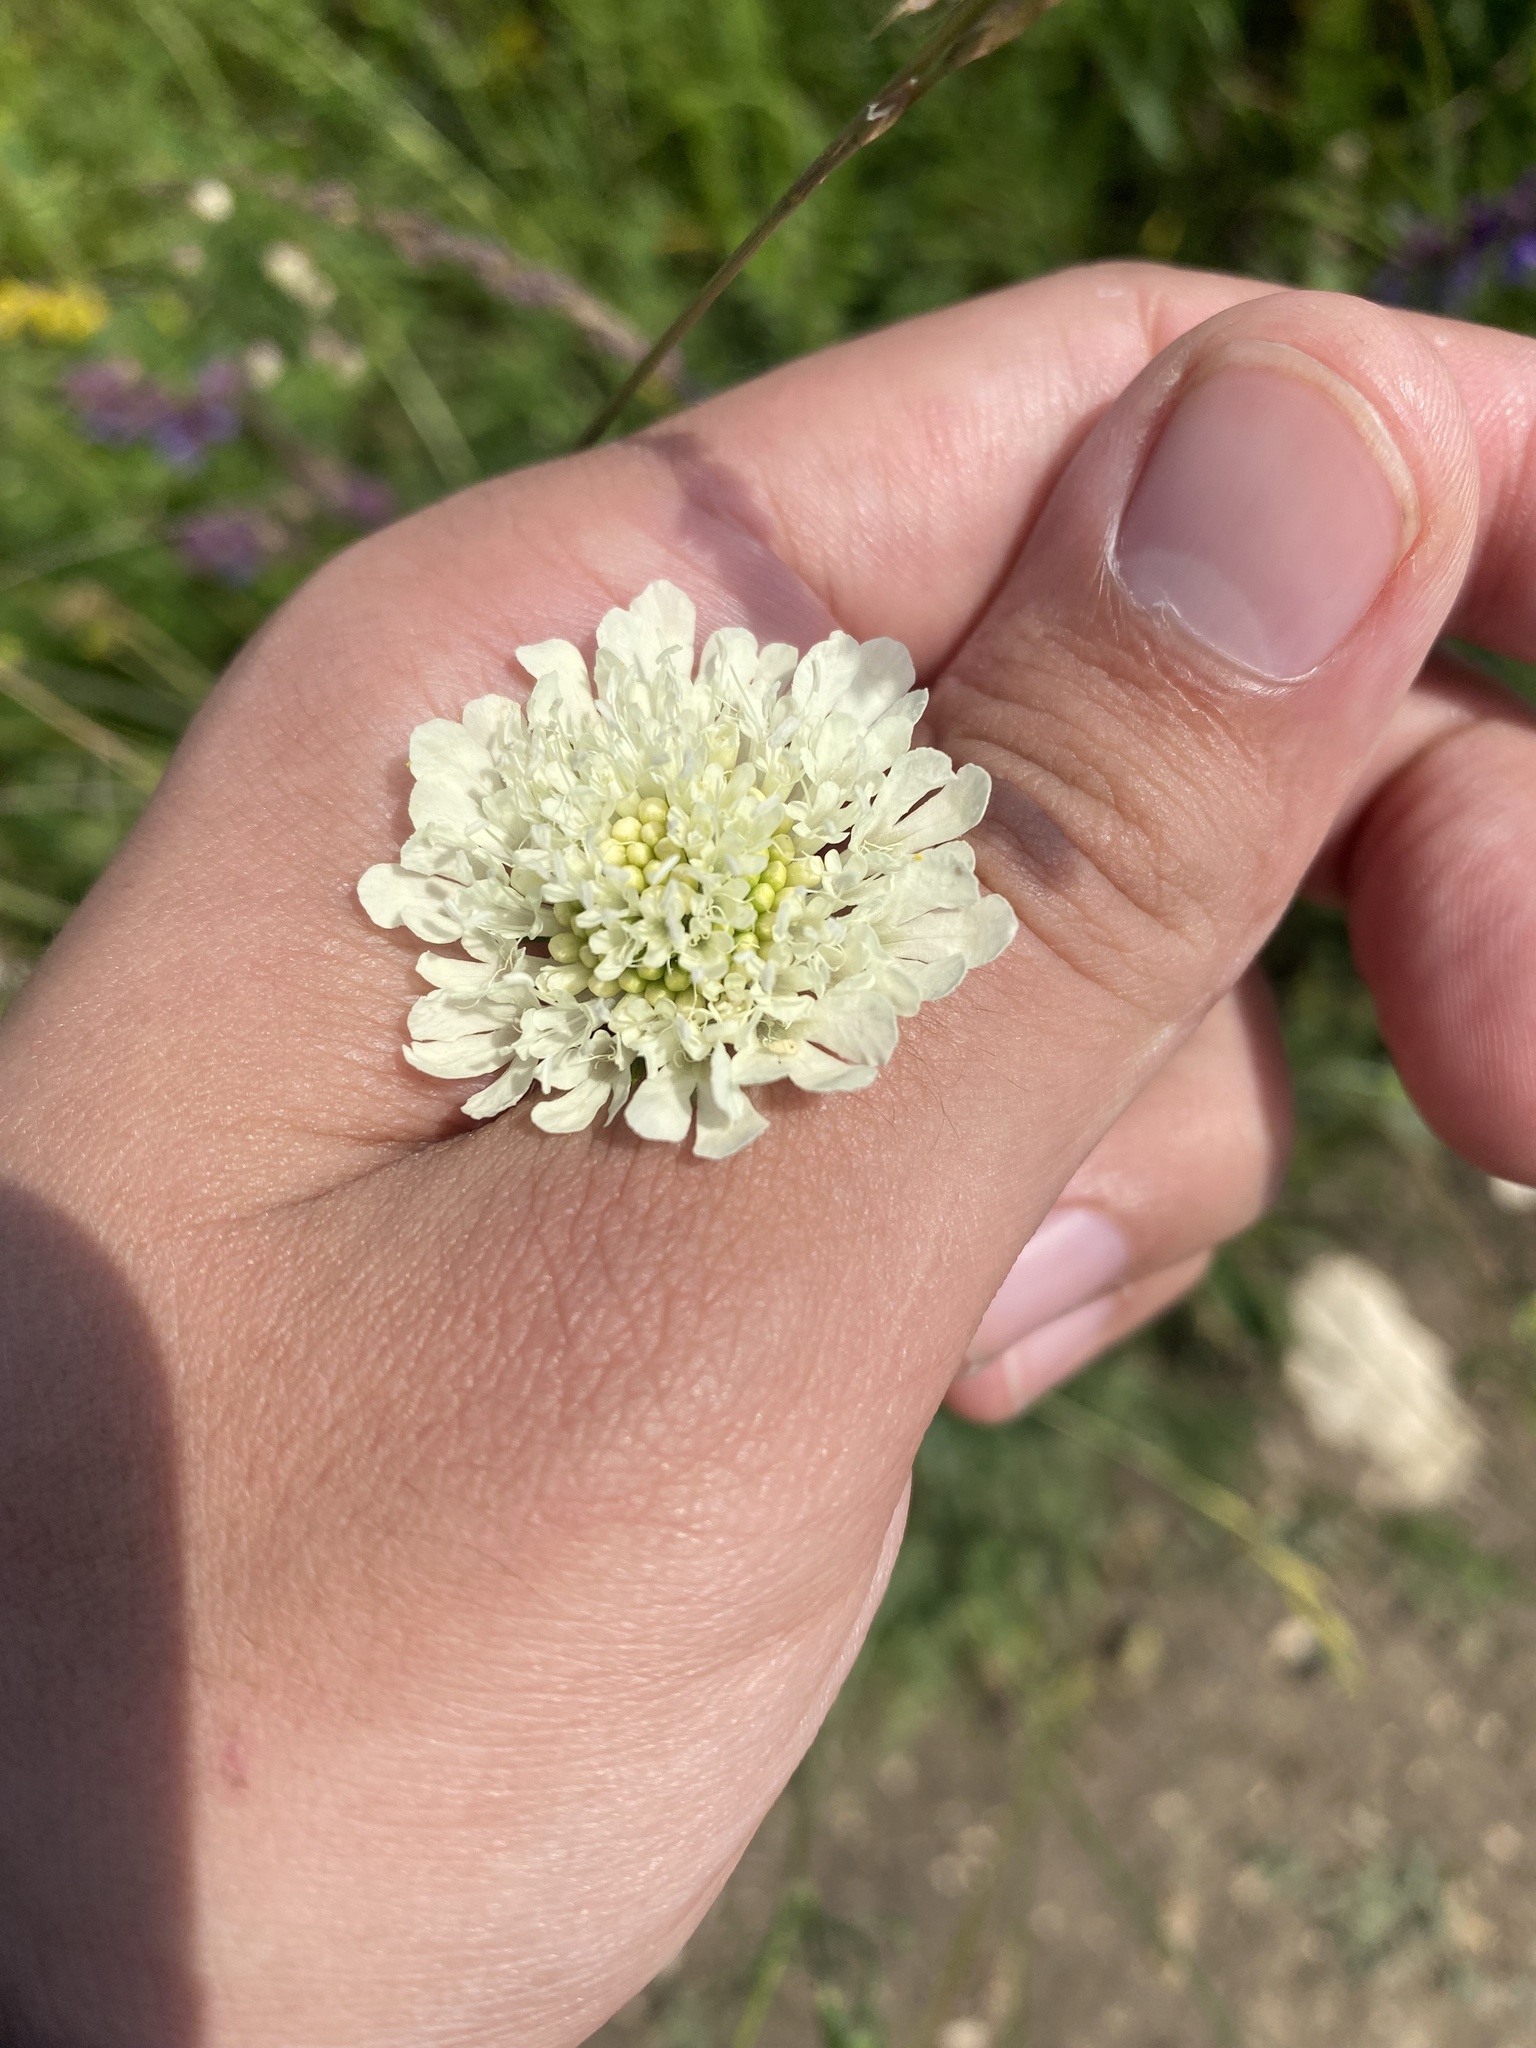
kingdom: Plantae
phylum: Tracheophyta
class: Magnoliopsida
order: Dipsacales
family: Caprifoliaceae
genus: Scabiosa
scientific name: Scabiosa ochroleuca
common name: Cream pincushions
